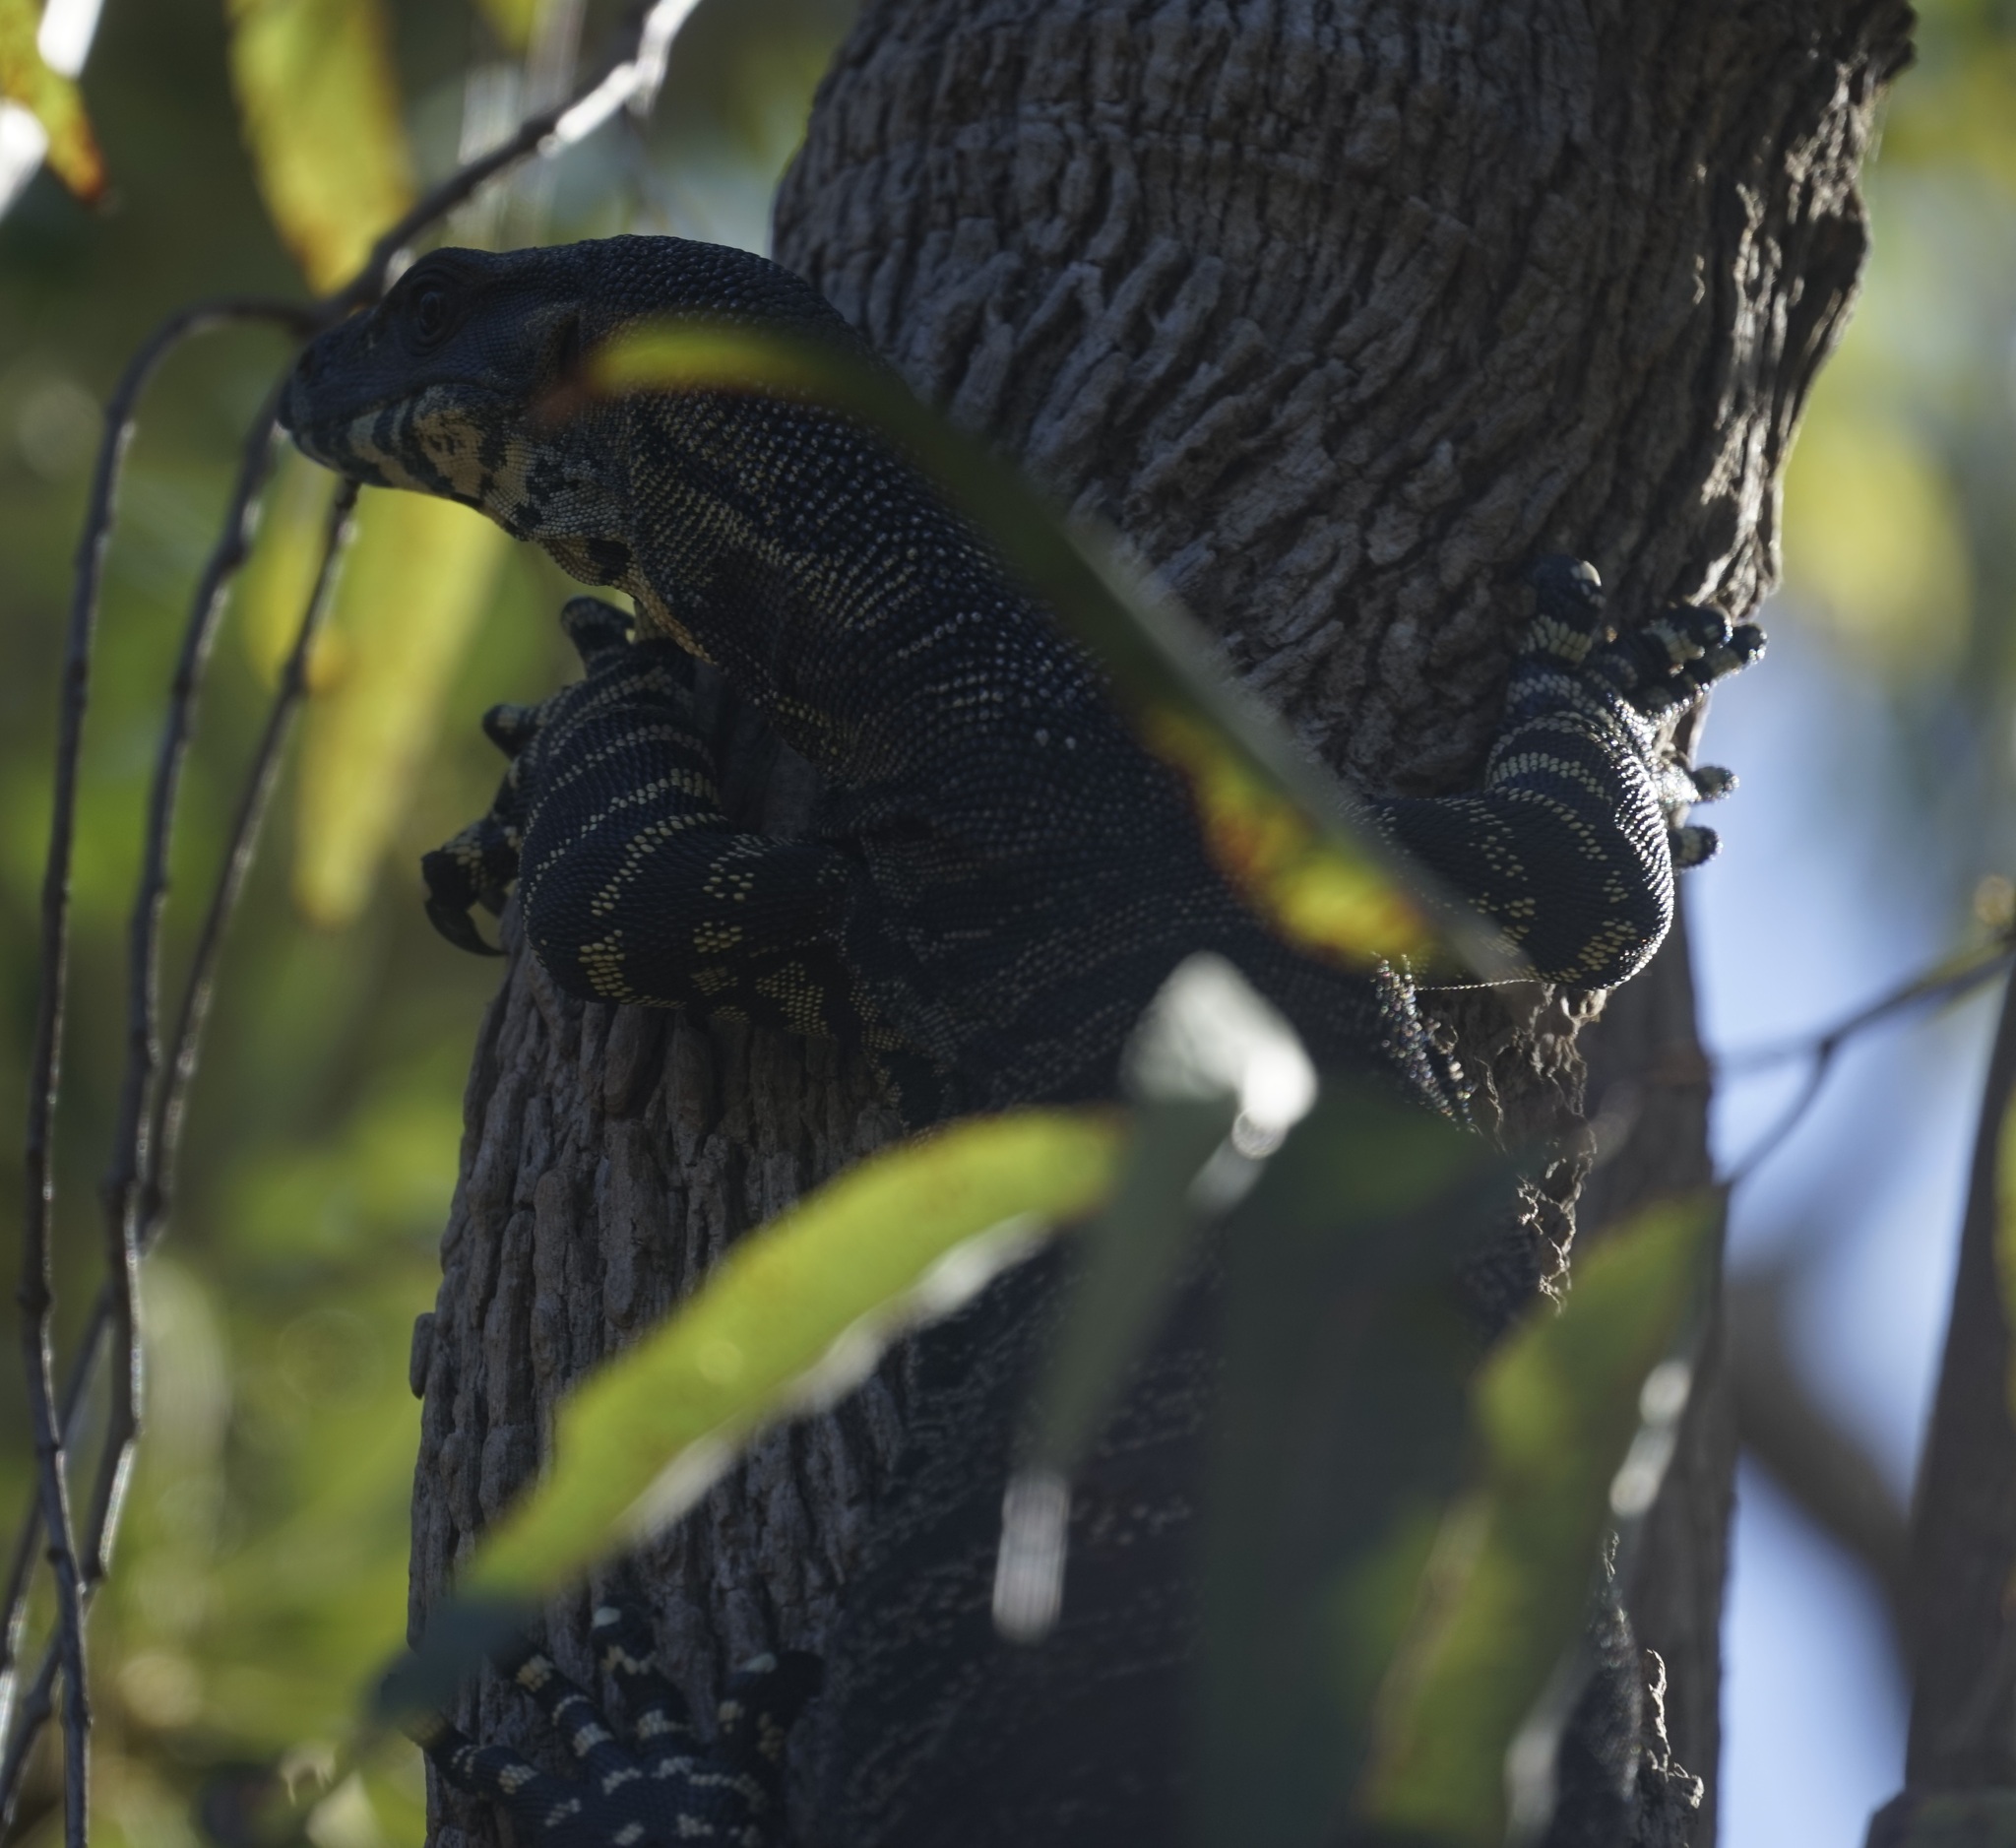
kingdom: Animalia
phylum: Chordata
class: Squamata
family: Varanidae
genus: Varanus
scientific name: Varanus varius
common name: Lace monitor
